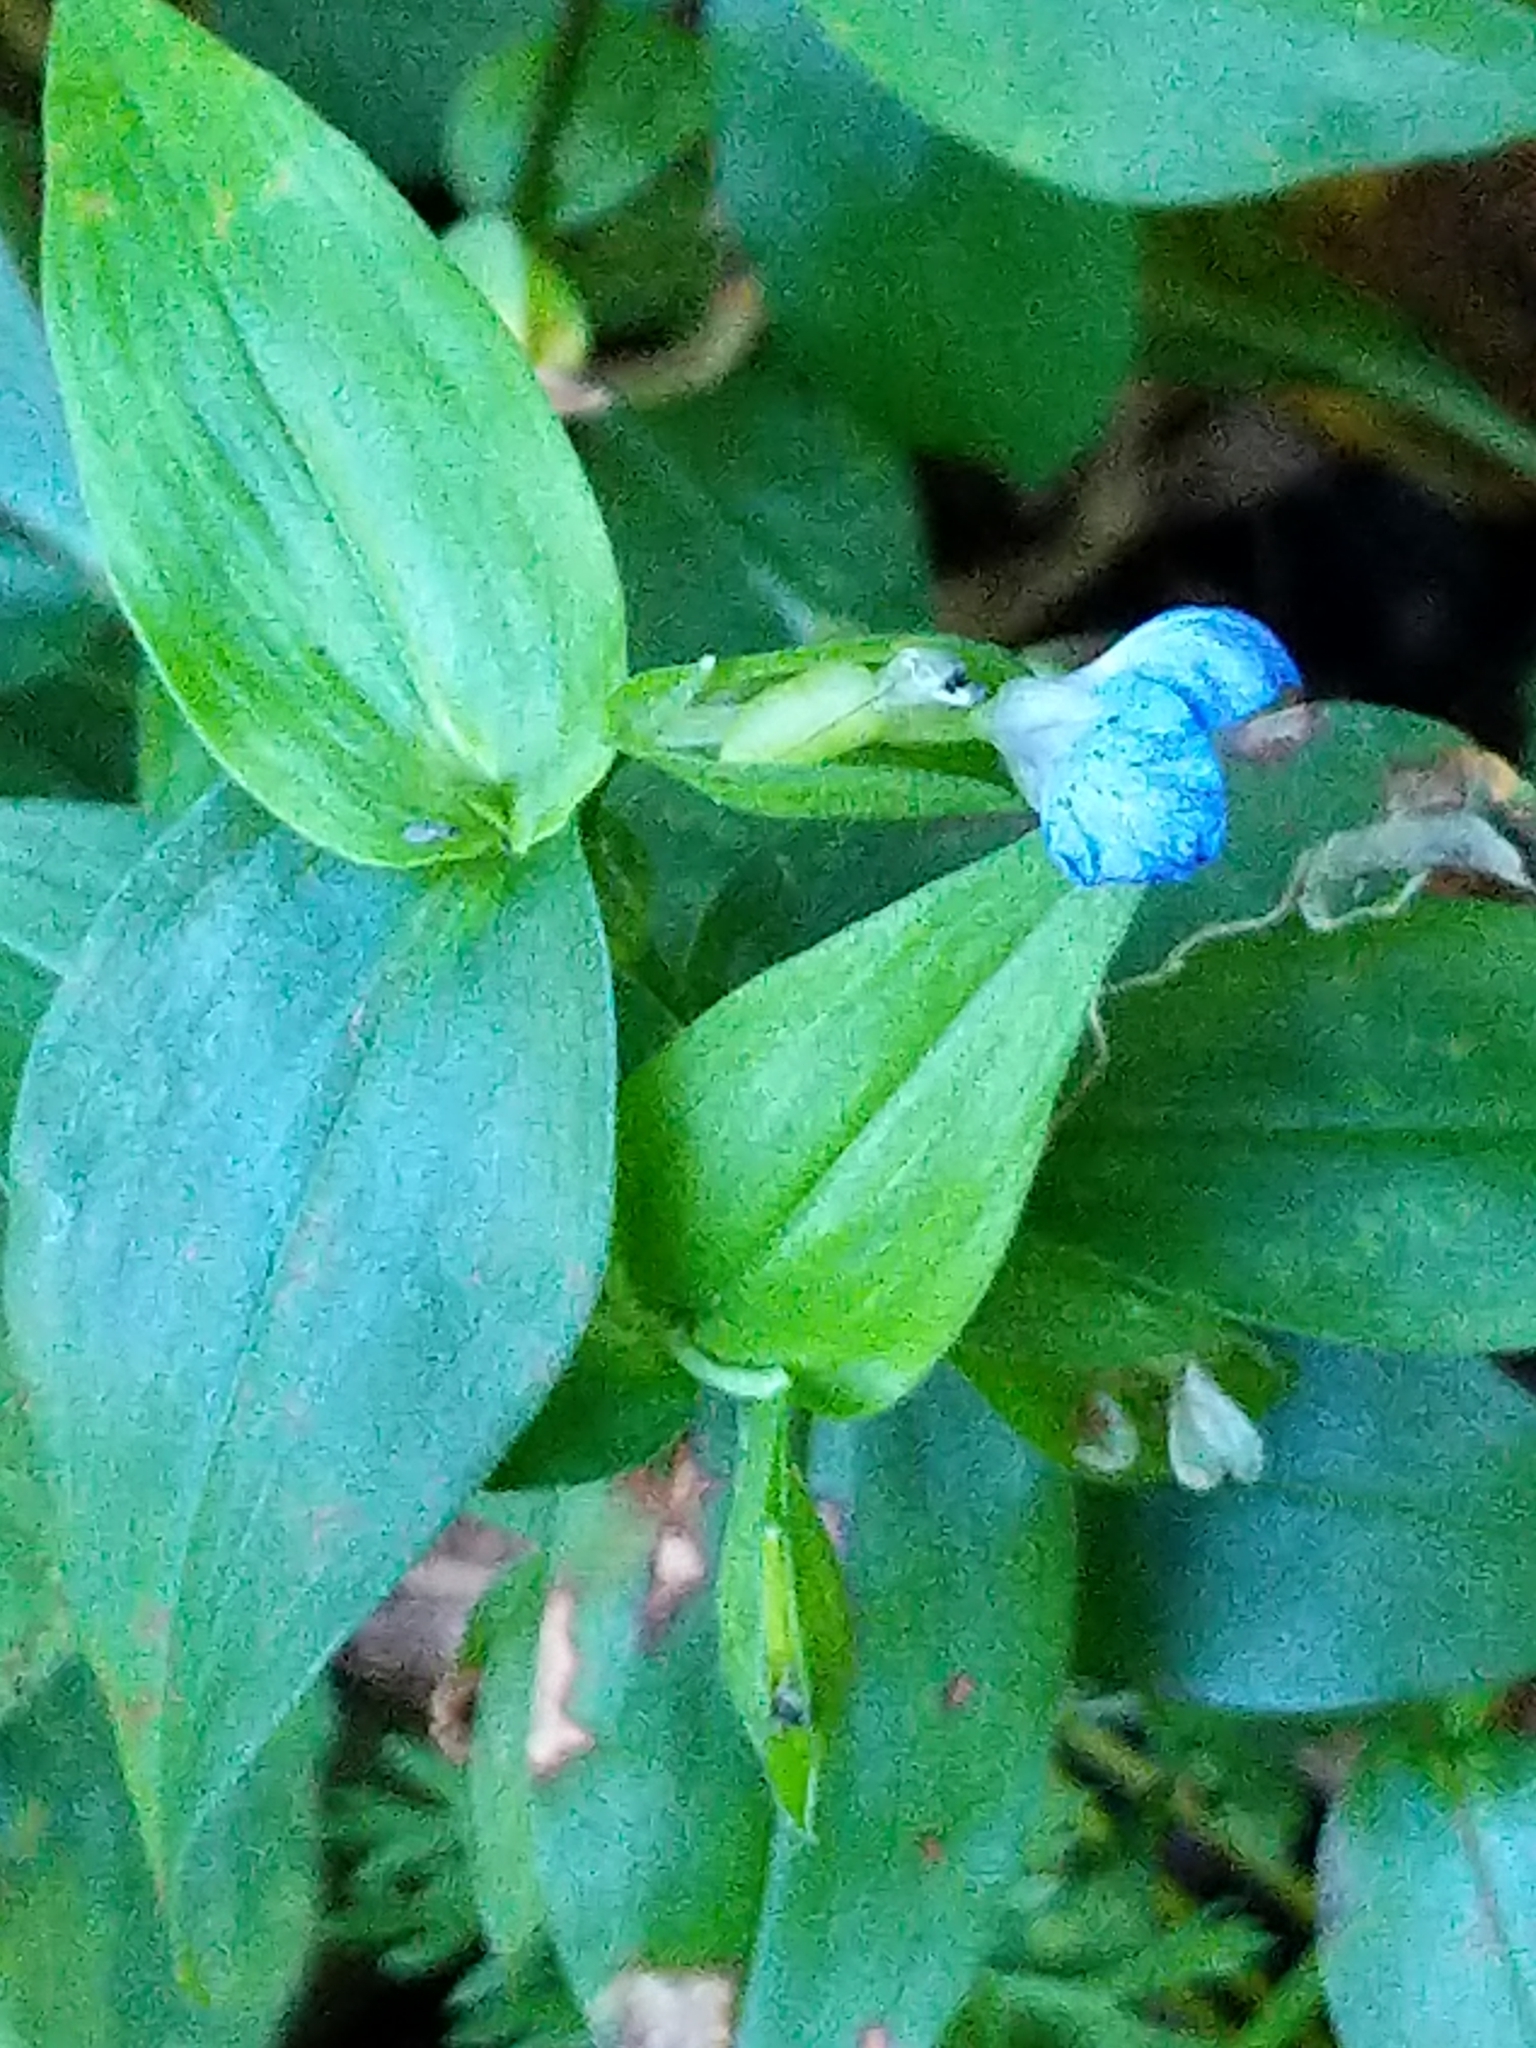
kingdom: Plantae
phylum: Tracheophyta
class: Liliopsida
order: Commelinales
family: Commelinaceae
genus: Commelina
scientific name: Commelina communis
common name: Asiatic dayflower
